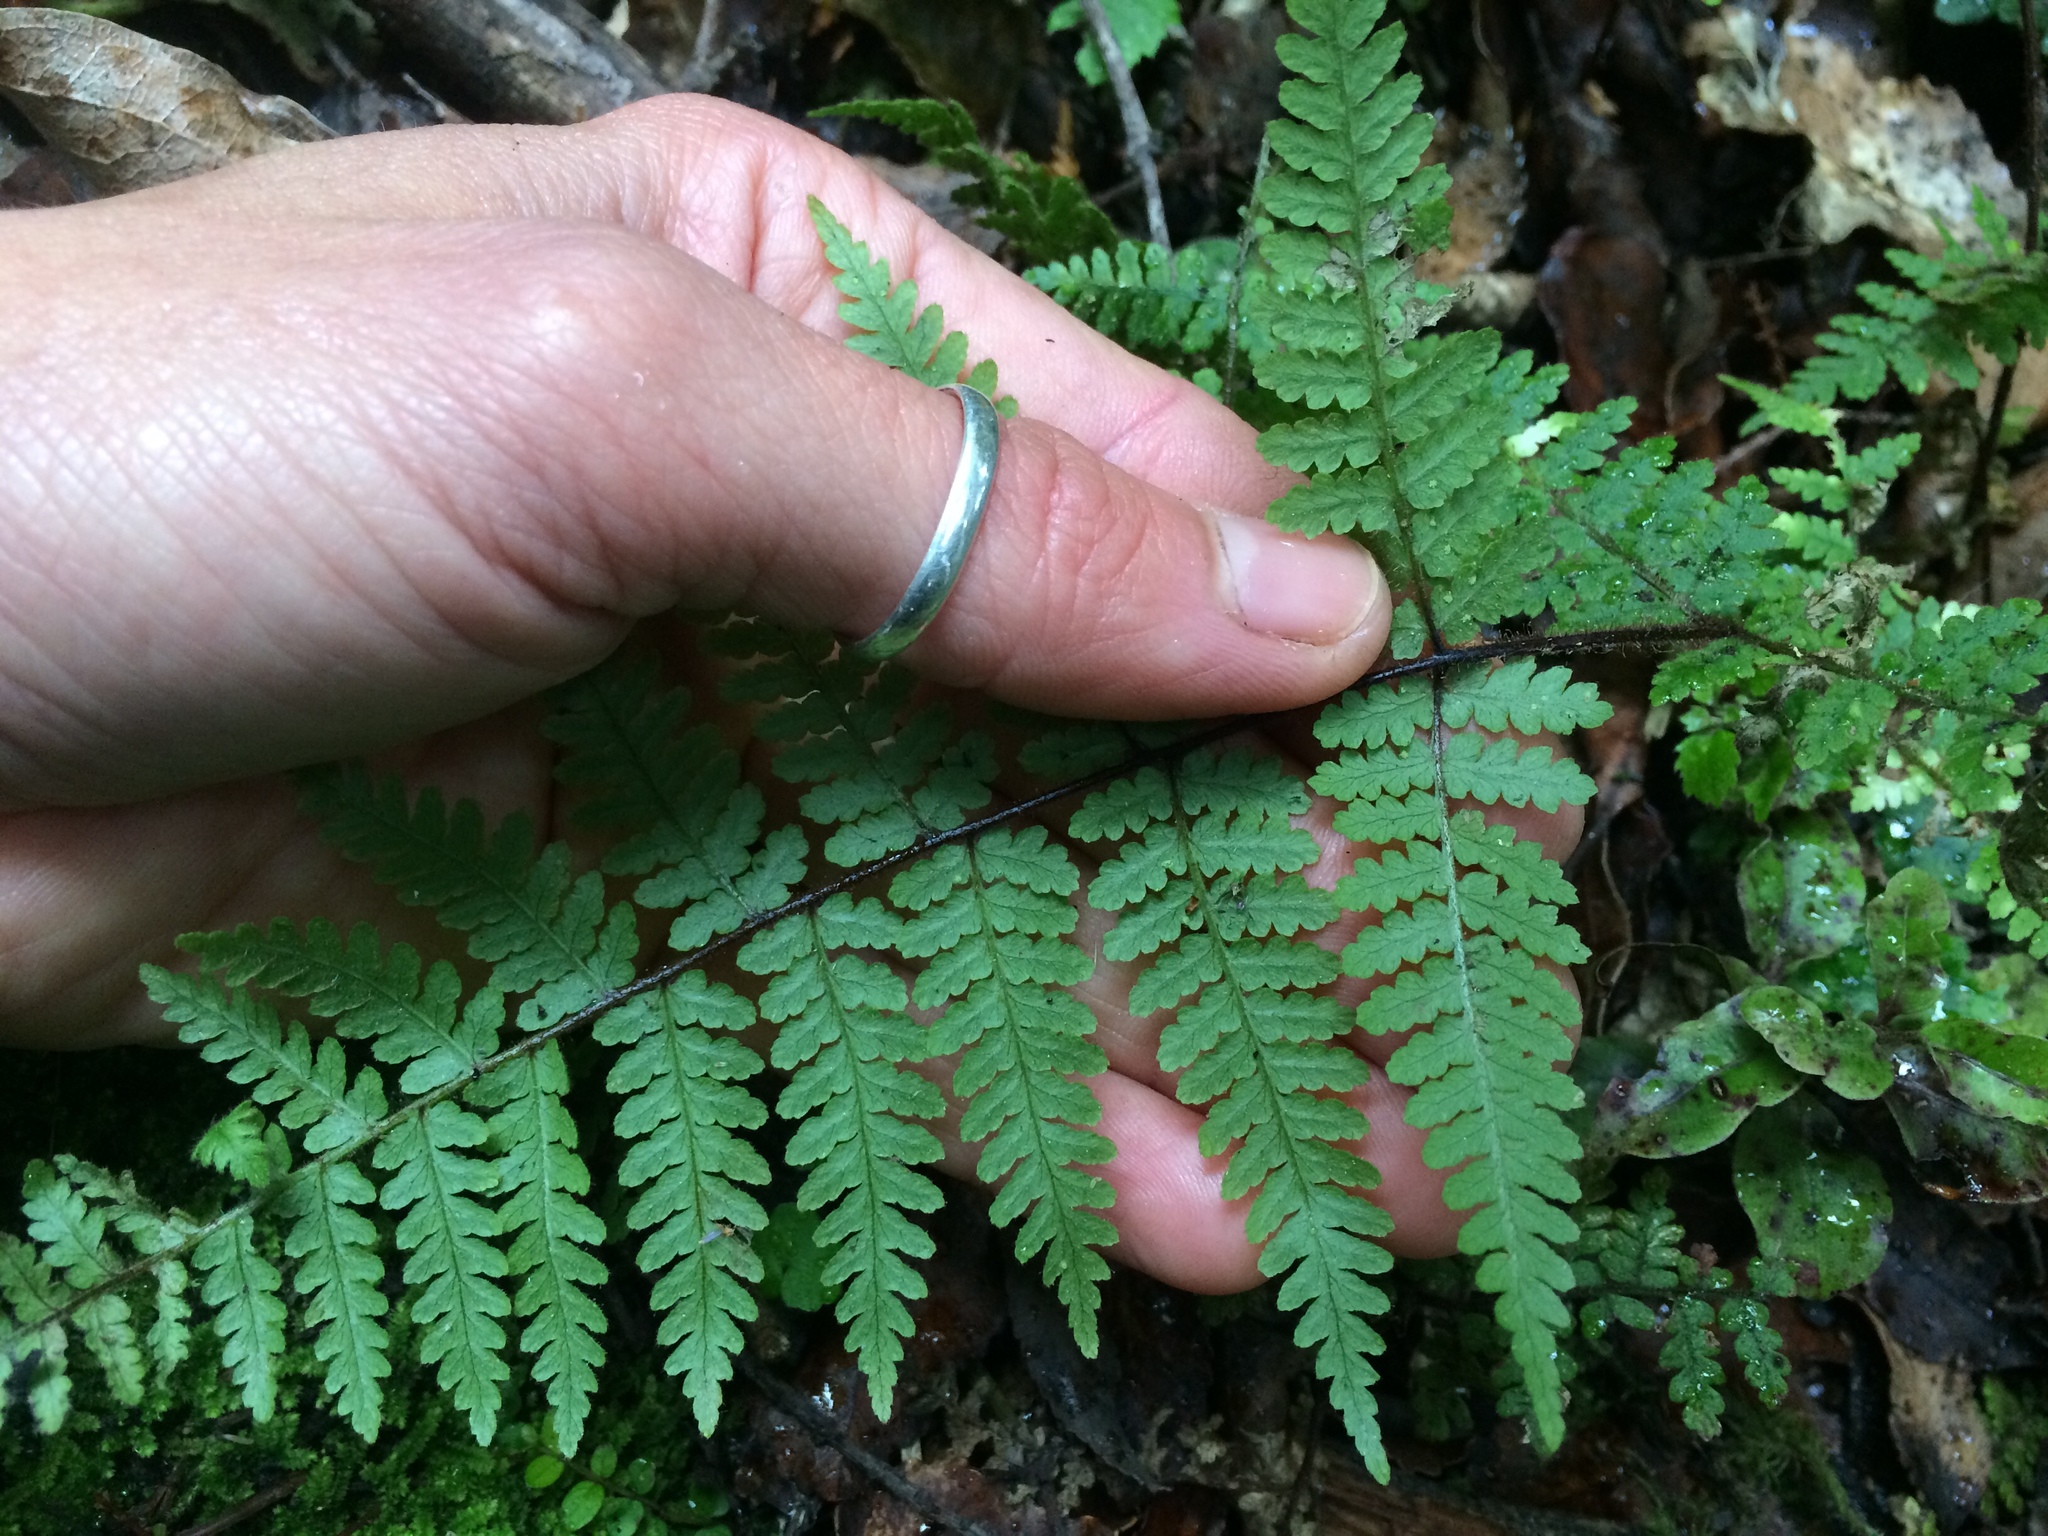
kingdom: Plantae
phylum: Tracheophyta
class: Polypodiopsida
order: Polypodiales
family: Dennstaedtiaceae
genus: Hypolepis
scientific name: Hypolepis rugosula
